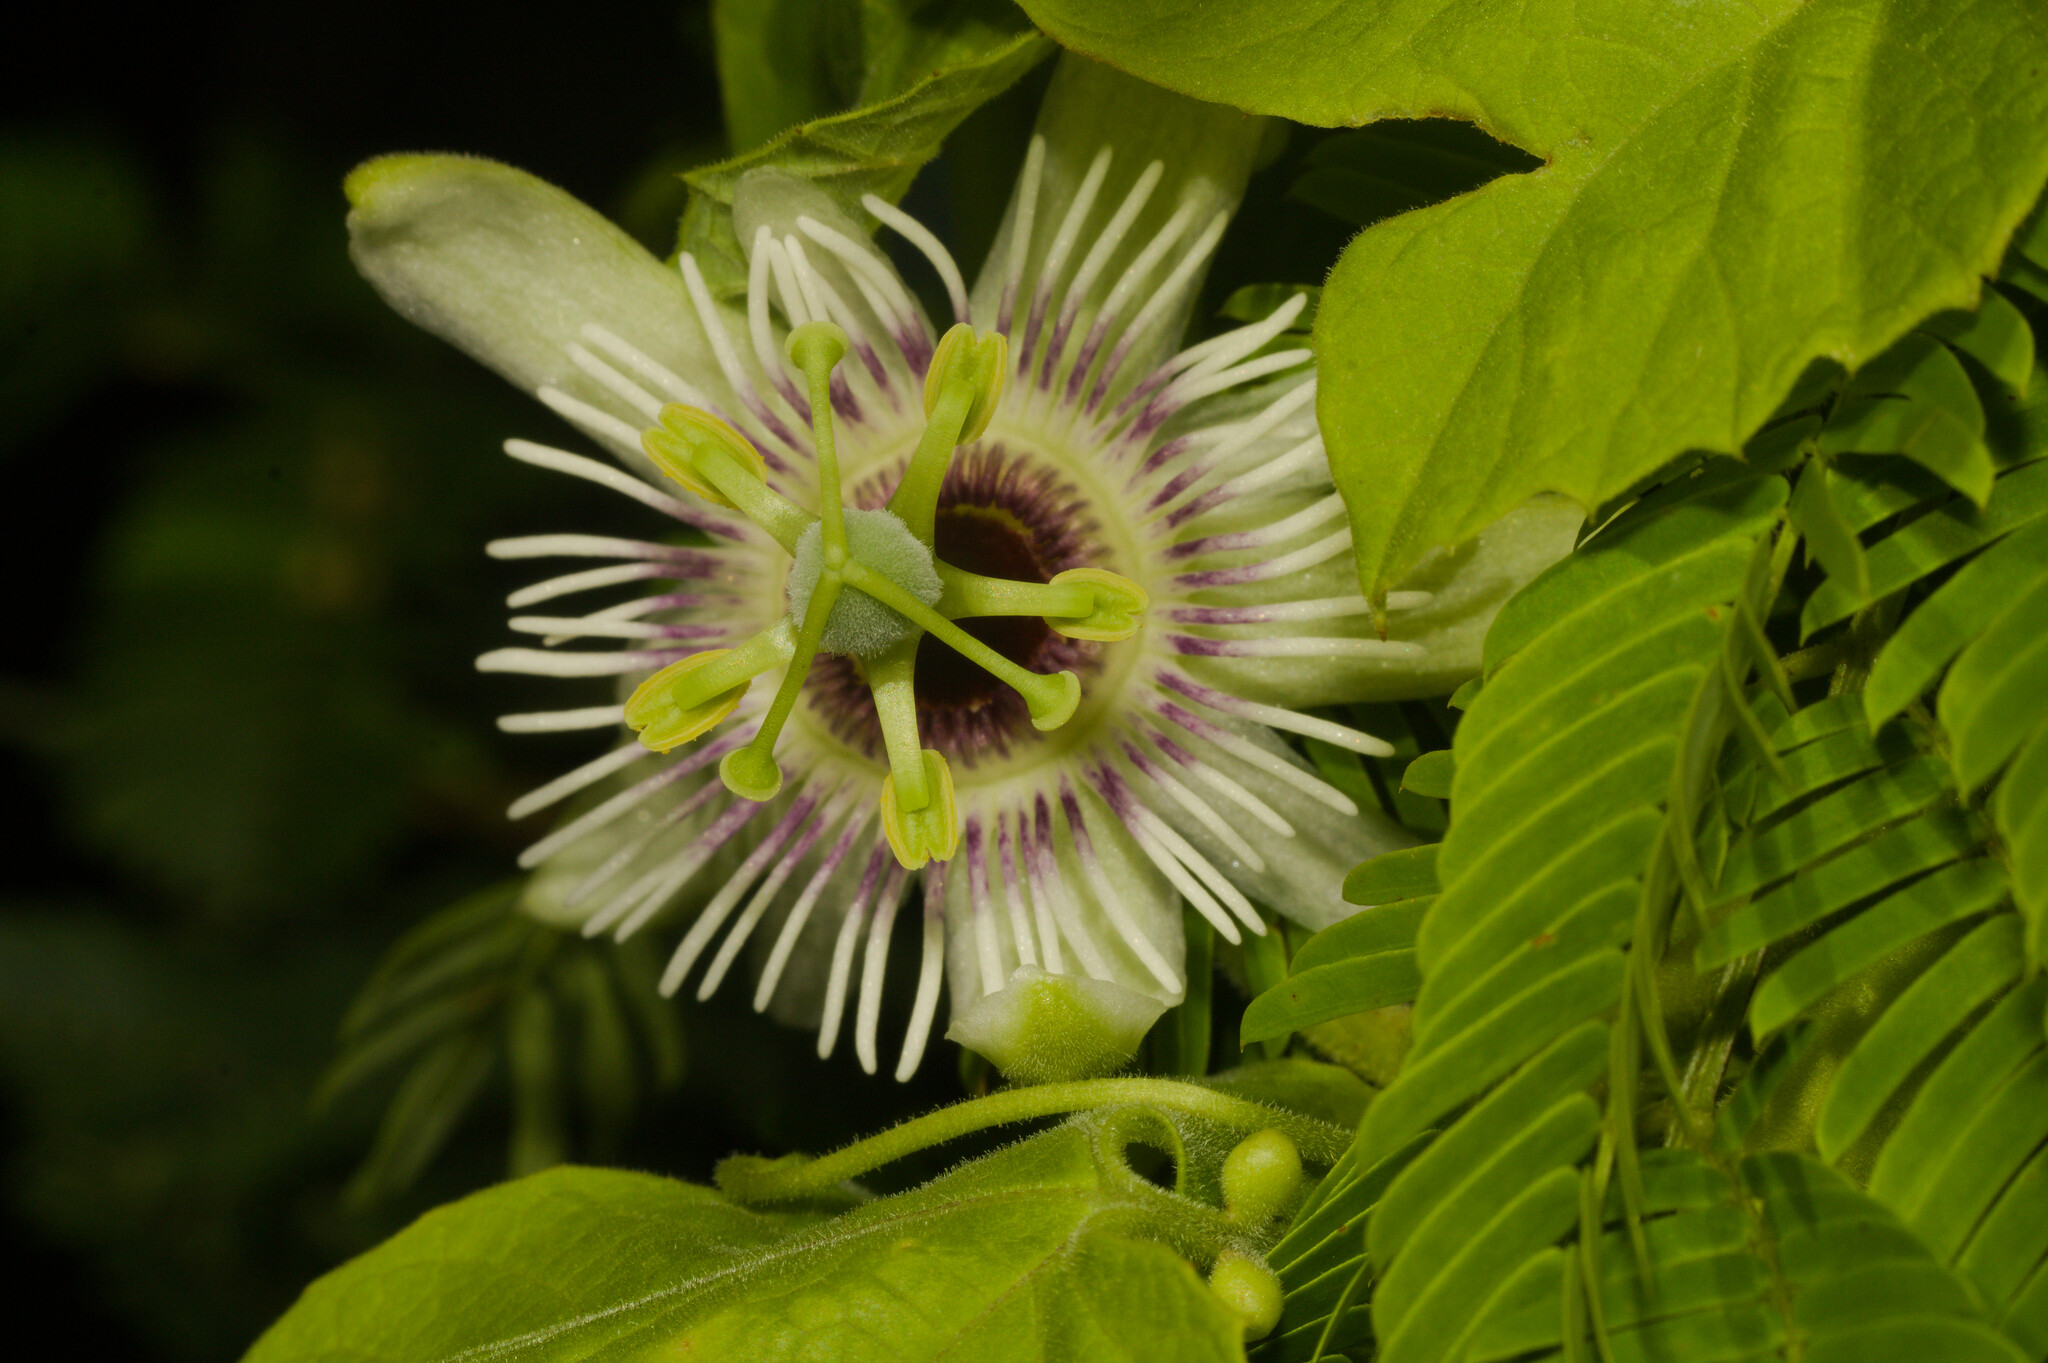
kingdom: Plantae
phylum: Tracheophyta
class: Magnoliopsida
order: Malpighiales
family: Passifloraceae
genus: Passiflora
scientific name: Passiflora morifolia
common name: Woodland passionflower
